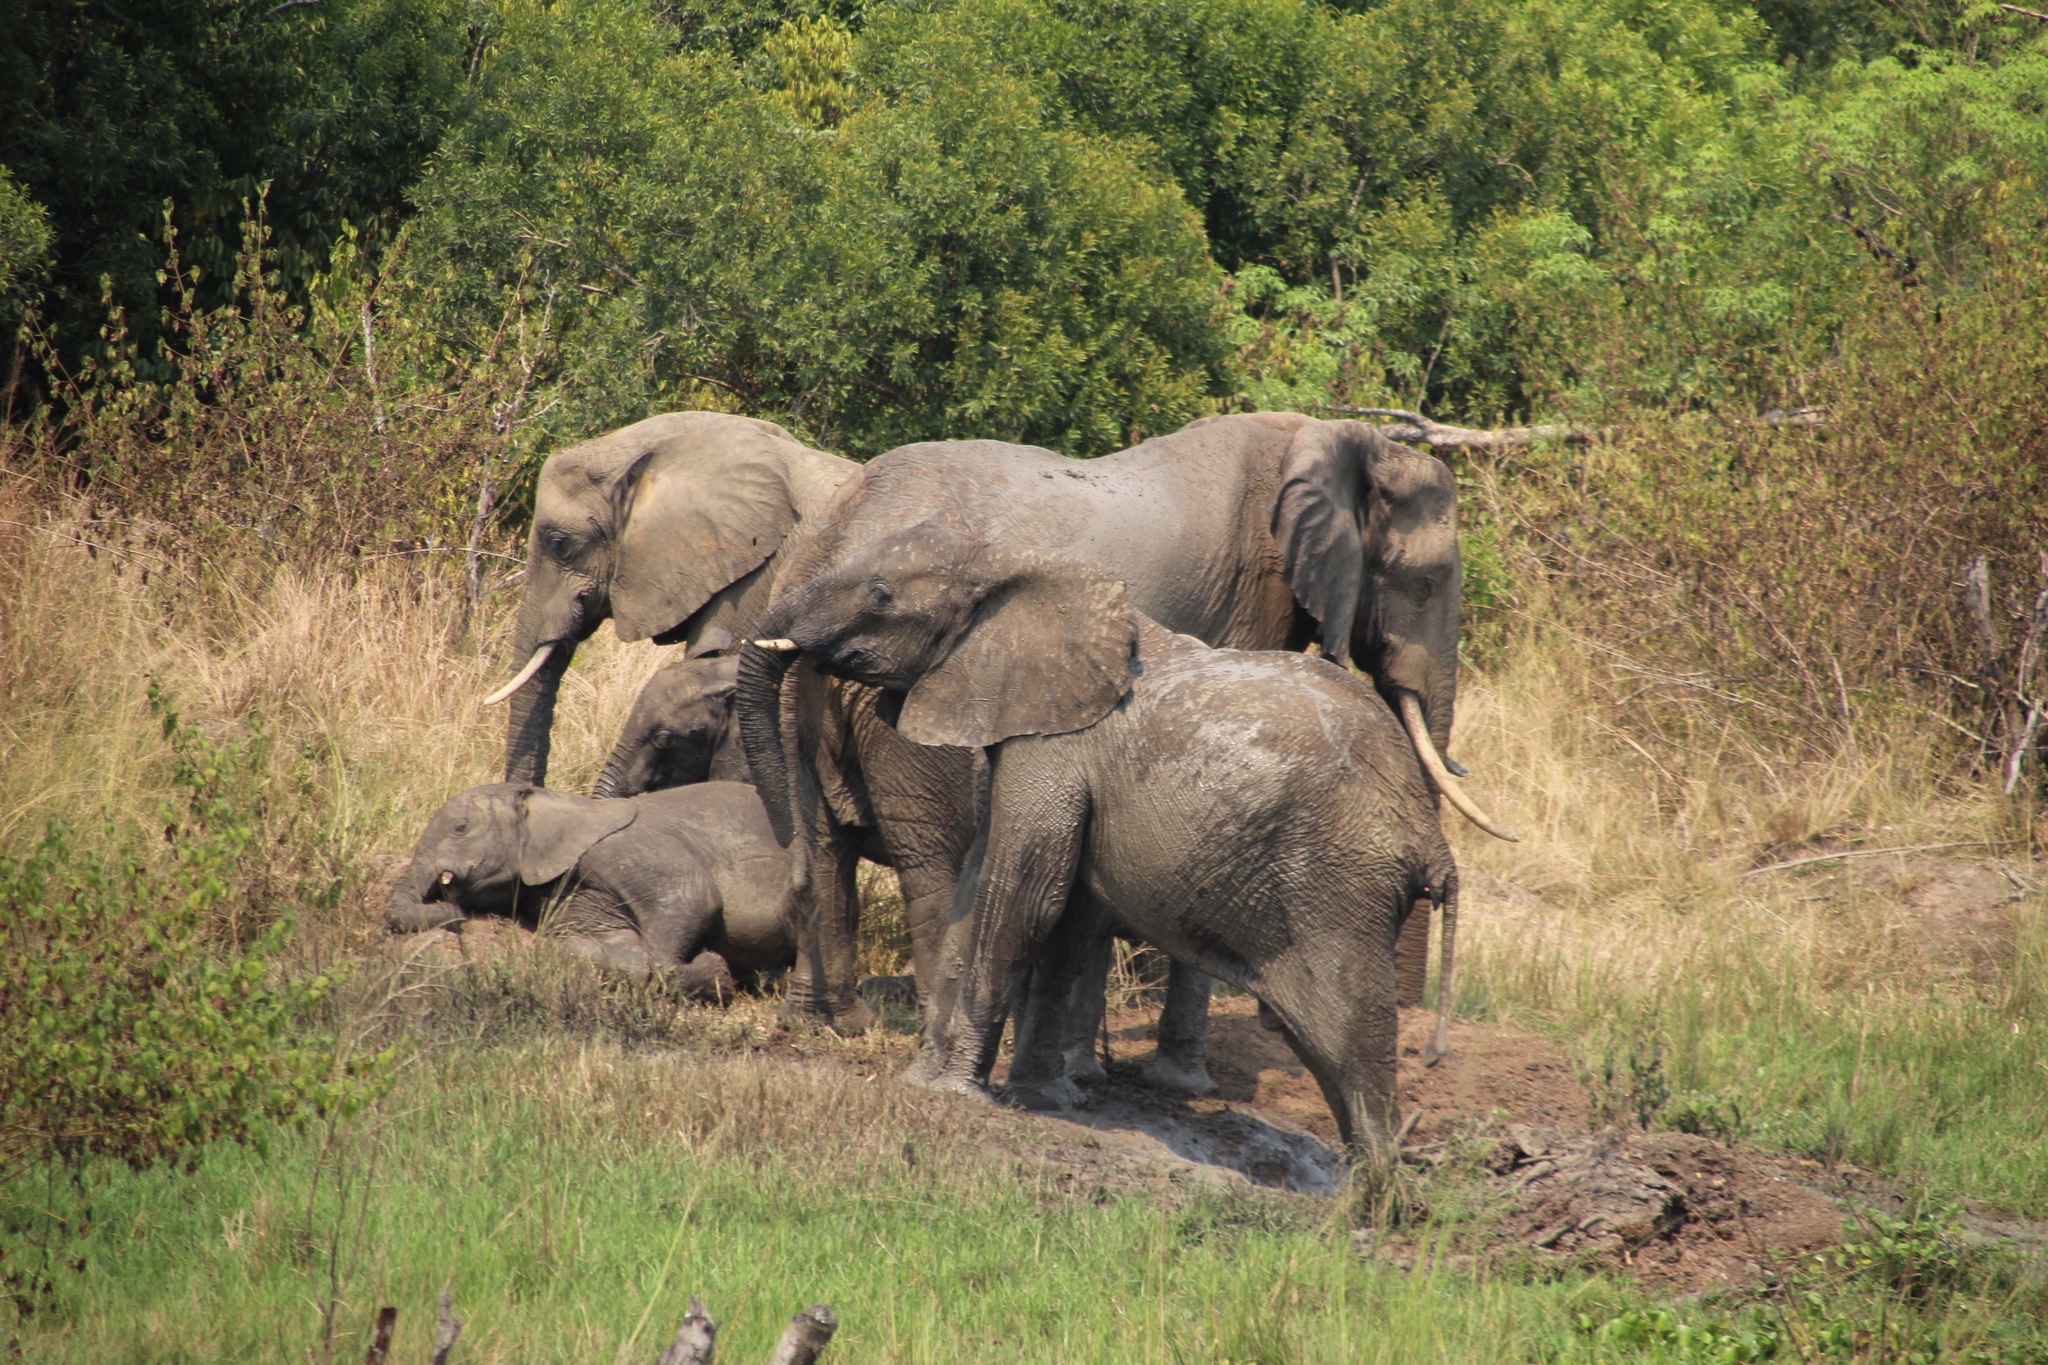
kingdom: Animalia
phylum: Chordata
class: Mammalia
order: Proboscidea
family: Elephantidae
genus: Loxodonta
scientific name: Loxodonta africana
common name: African elephant
